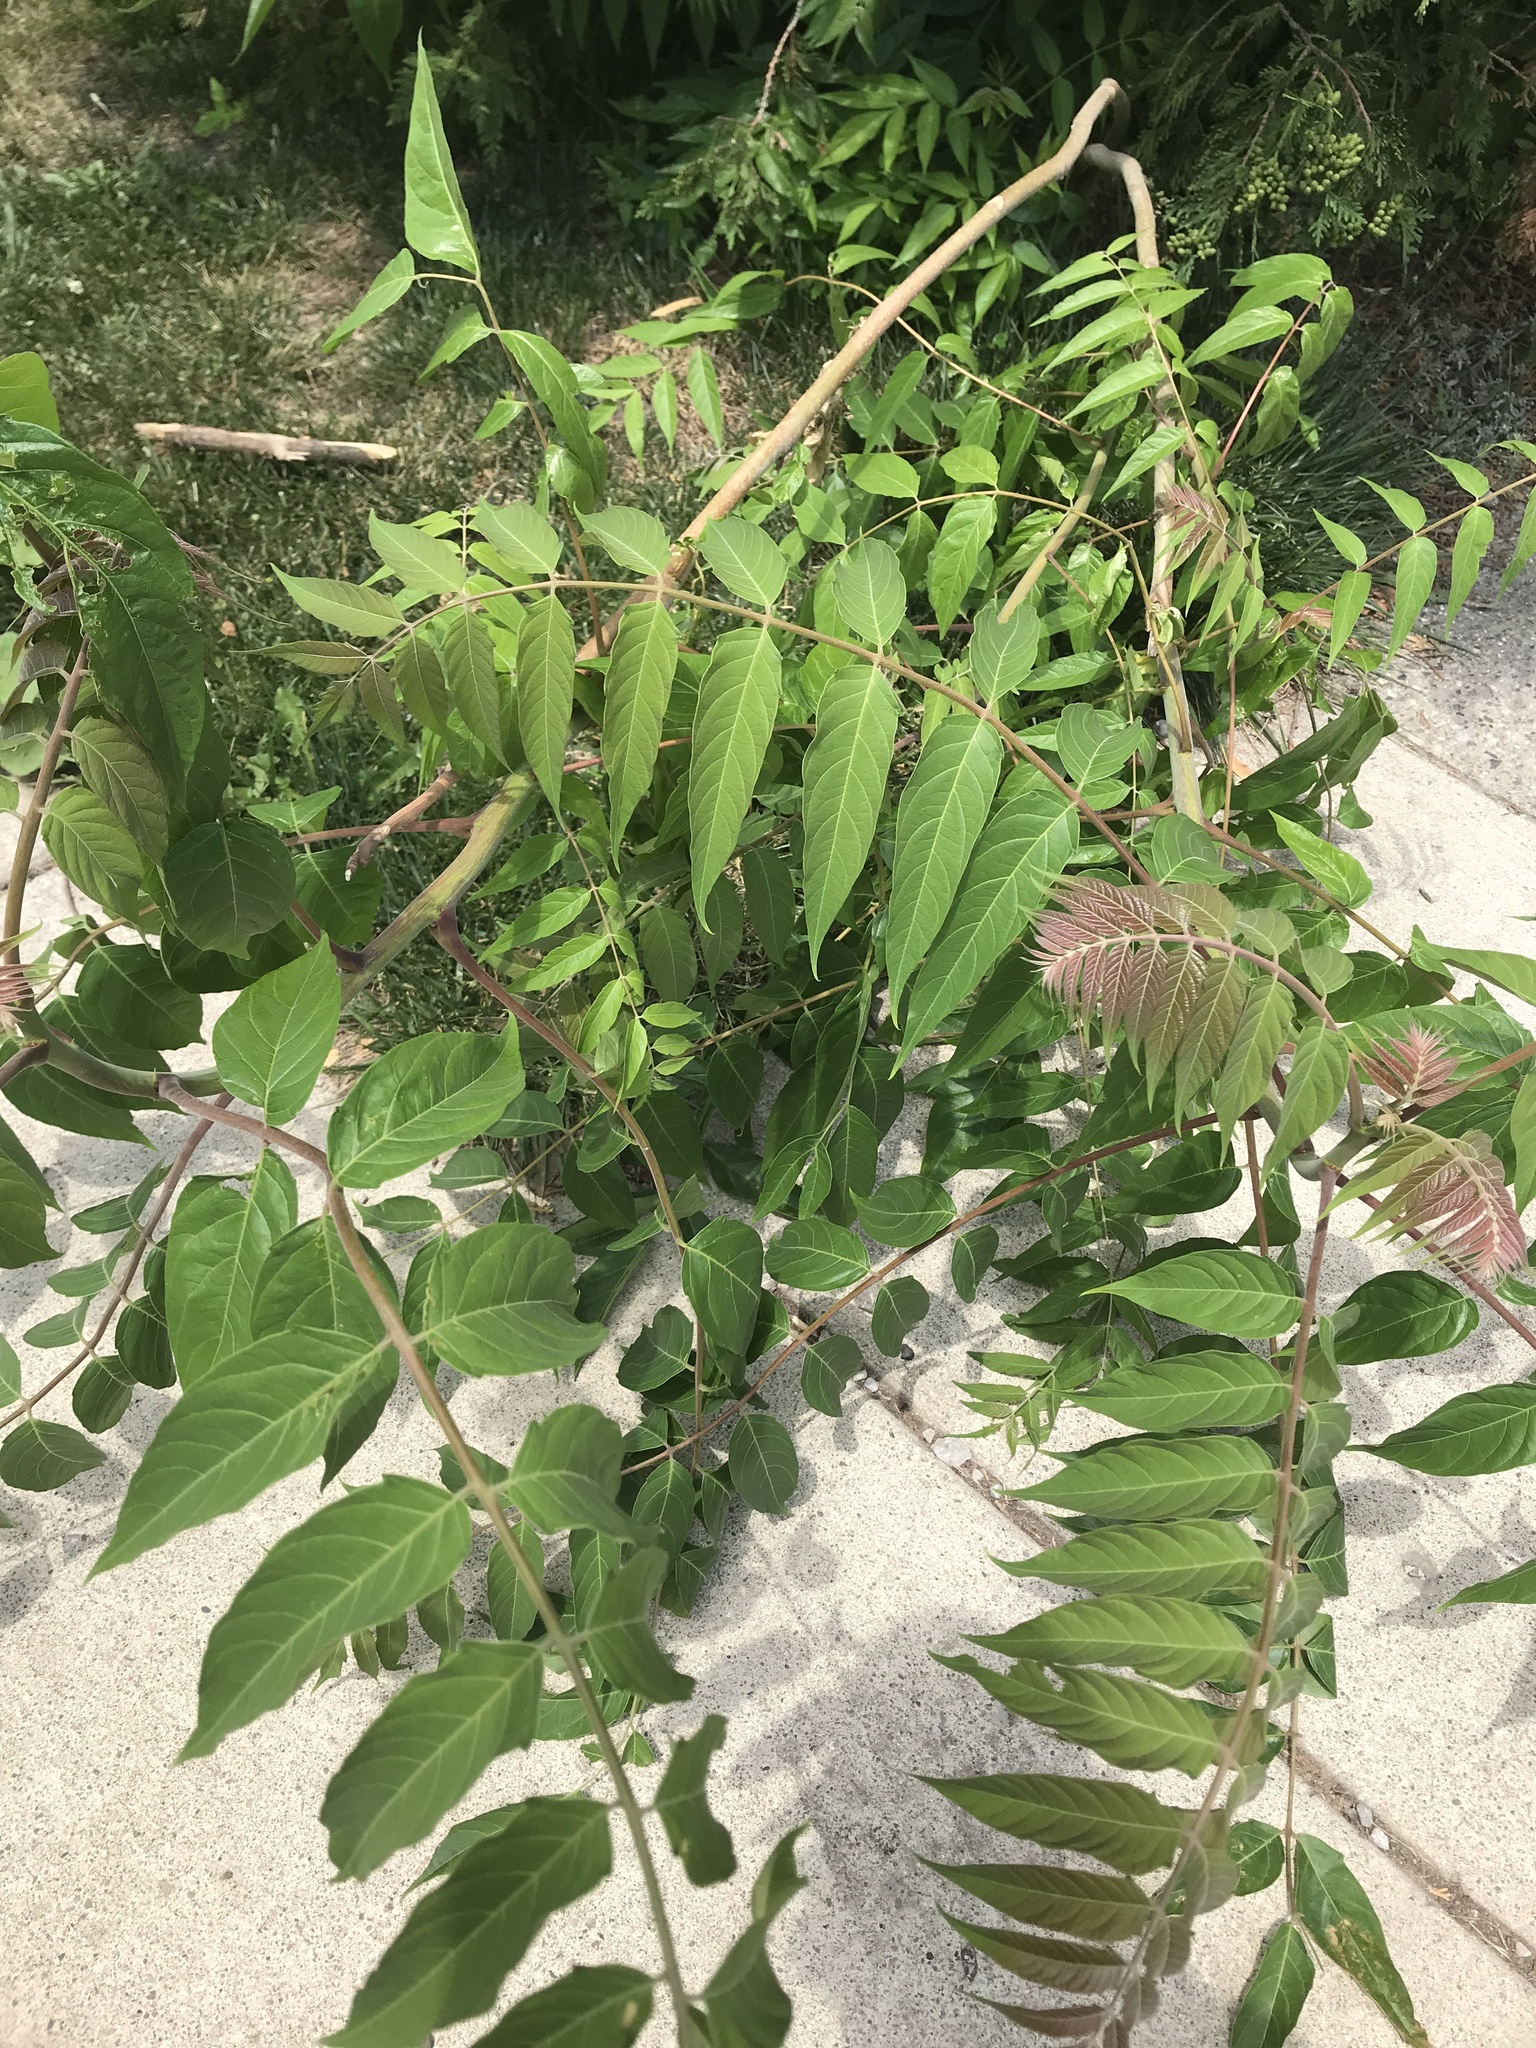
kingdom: Plantae
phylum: Tracheophyta
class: Magnoliopsida
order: Sapindales
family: Simaroubaceae
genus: Ailanthus
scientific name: Ailanthus altissima
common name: Tree-of-heaven
